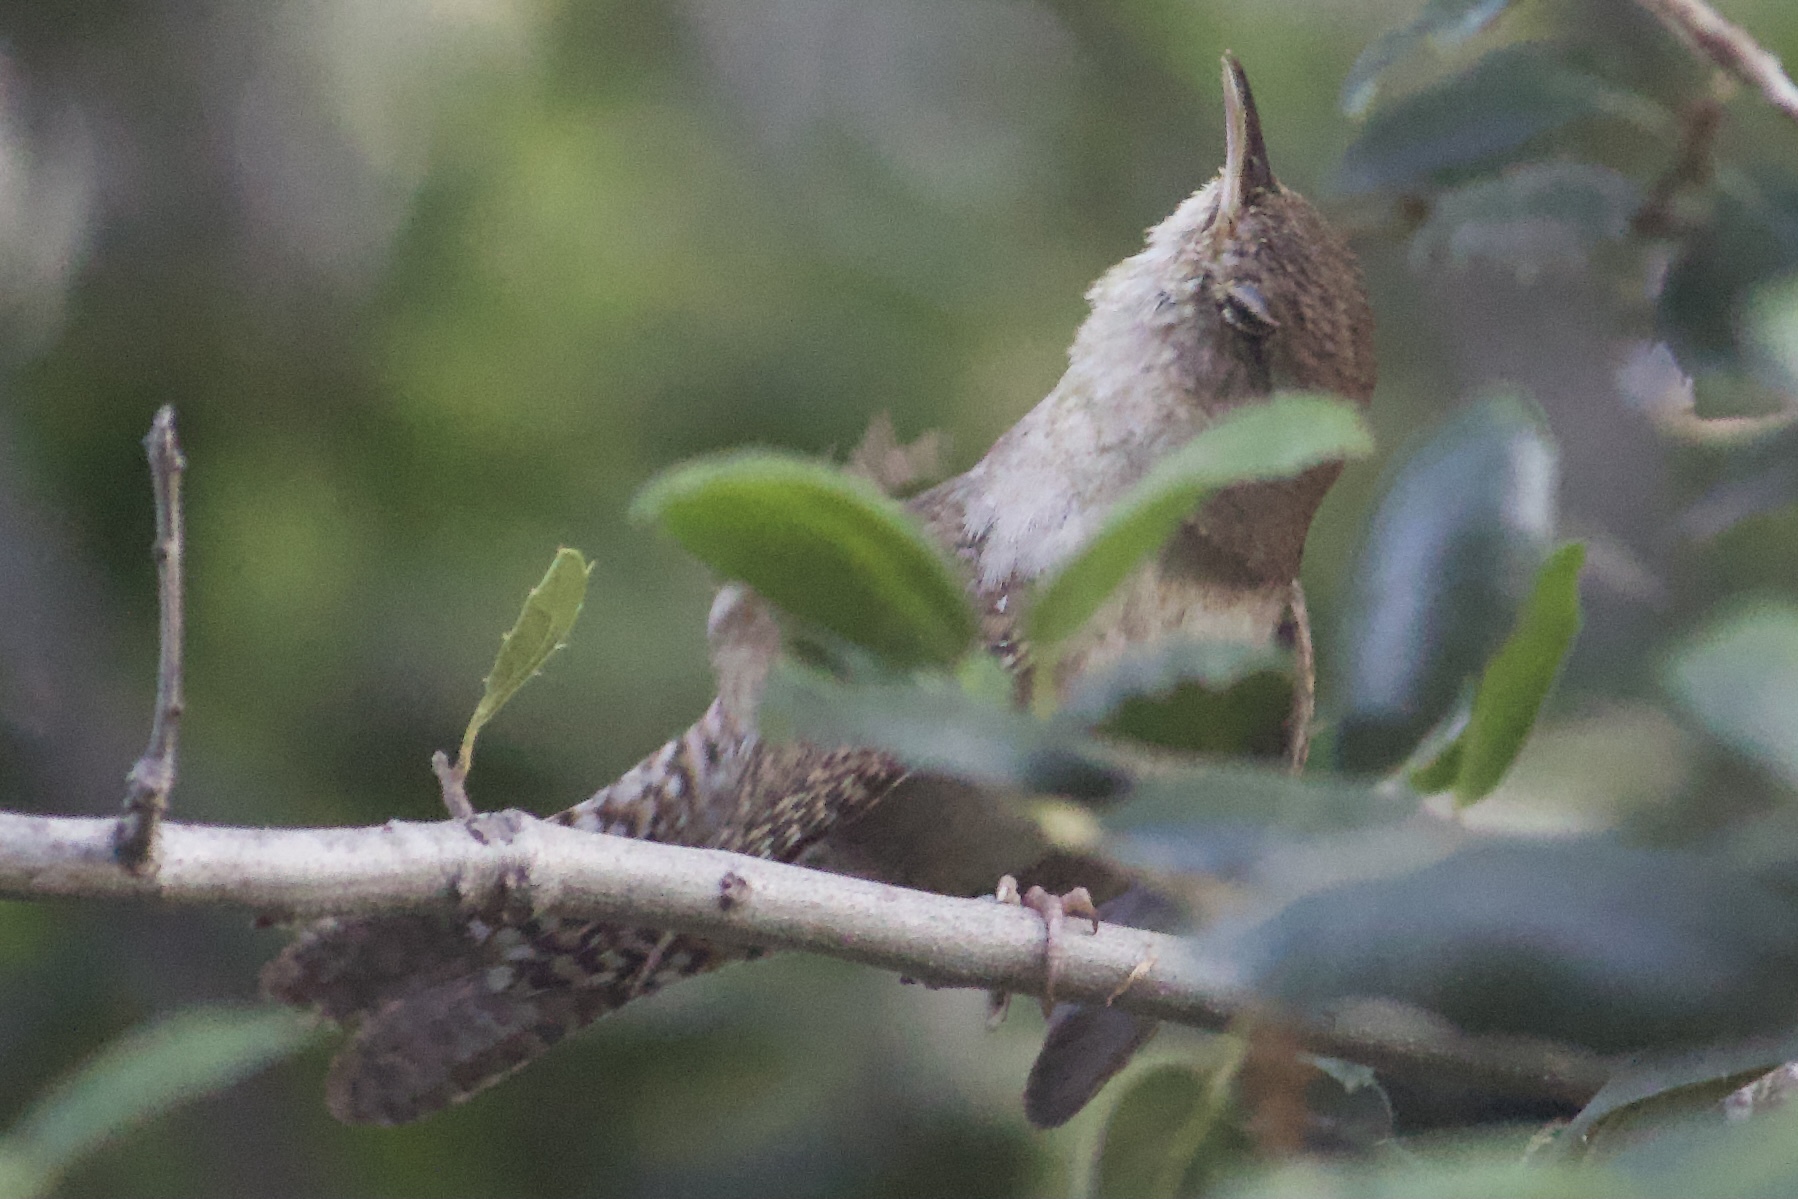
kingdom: Animalia
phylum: Chordata
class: Aves
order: Passeriformes
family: Troglodytidae
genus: Troglodytes
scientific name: Troglodytes aedon
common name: House wren
